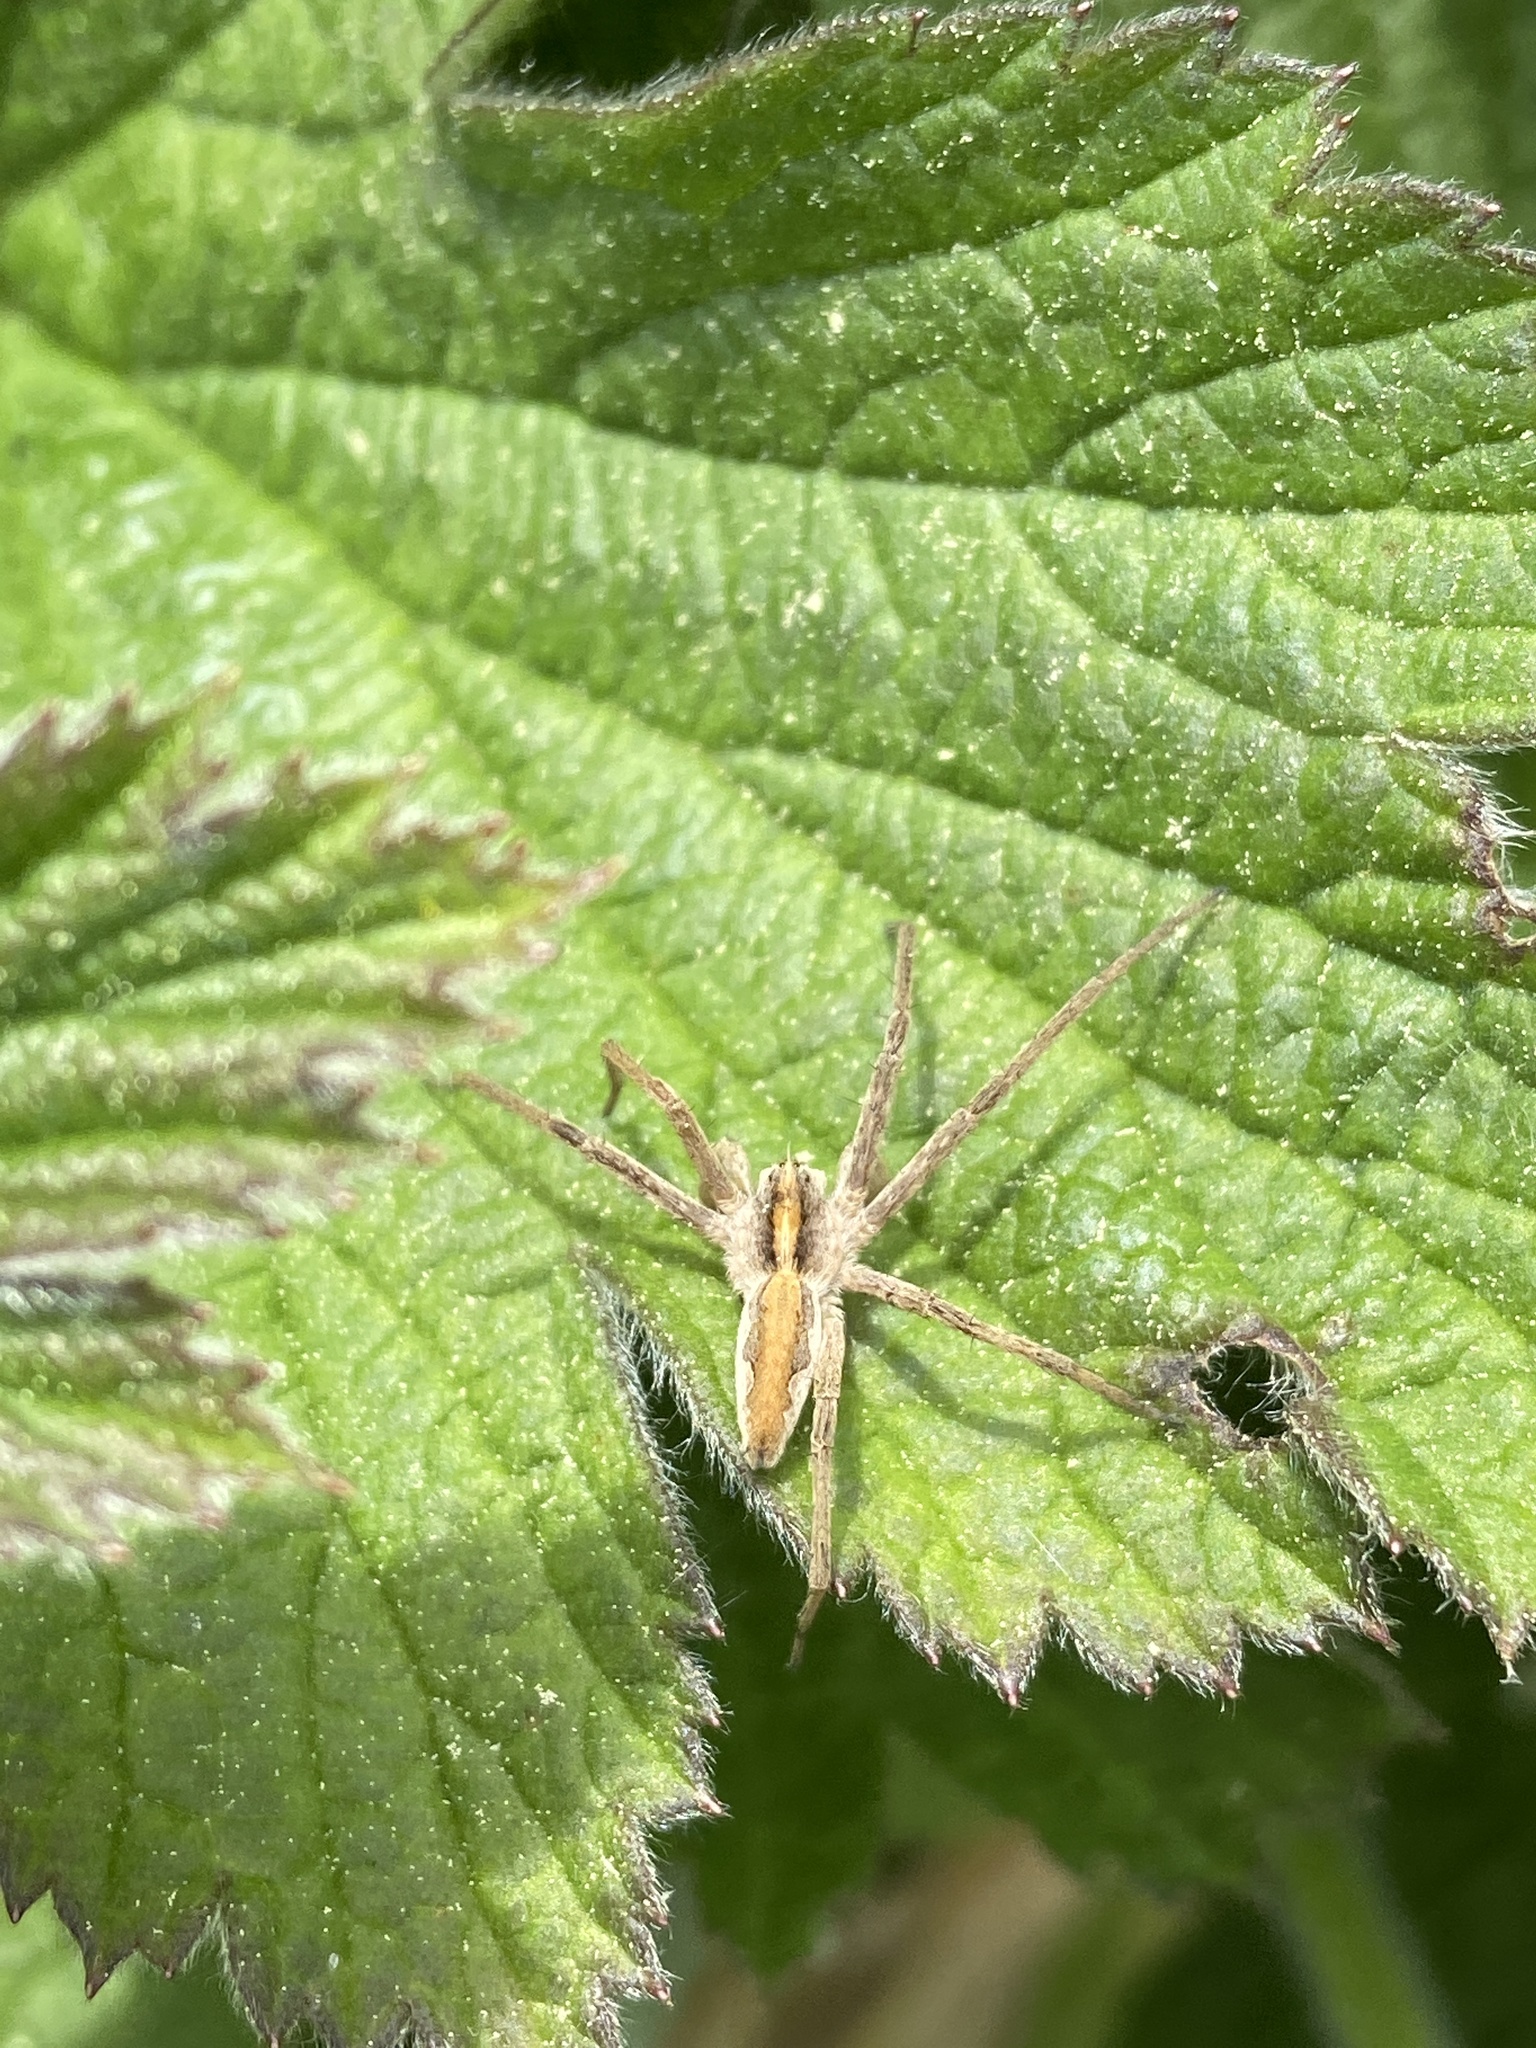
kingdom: Animalia
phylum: Arthropoda
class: Arachnida
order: Araneae
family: Pisauridae
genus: Pisaura
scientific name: Pisaura mirabilis
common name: Tent spider
